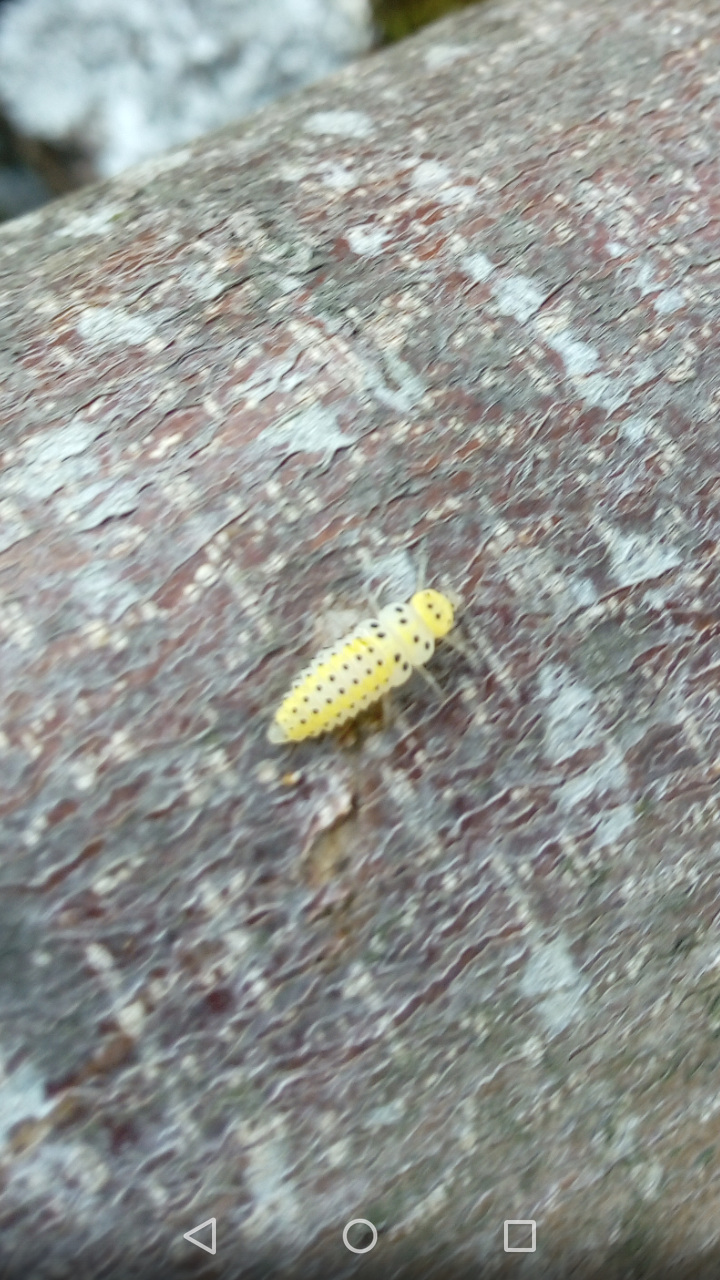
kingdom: Animalia
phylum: Arthropoda
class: Insecta
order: Coleoptera
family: Coccinellidae
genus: Halyzia
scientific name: Halyzia sedecimguttata
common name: Orange ladybird
